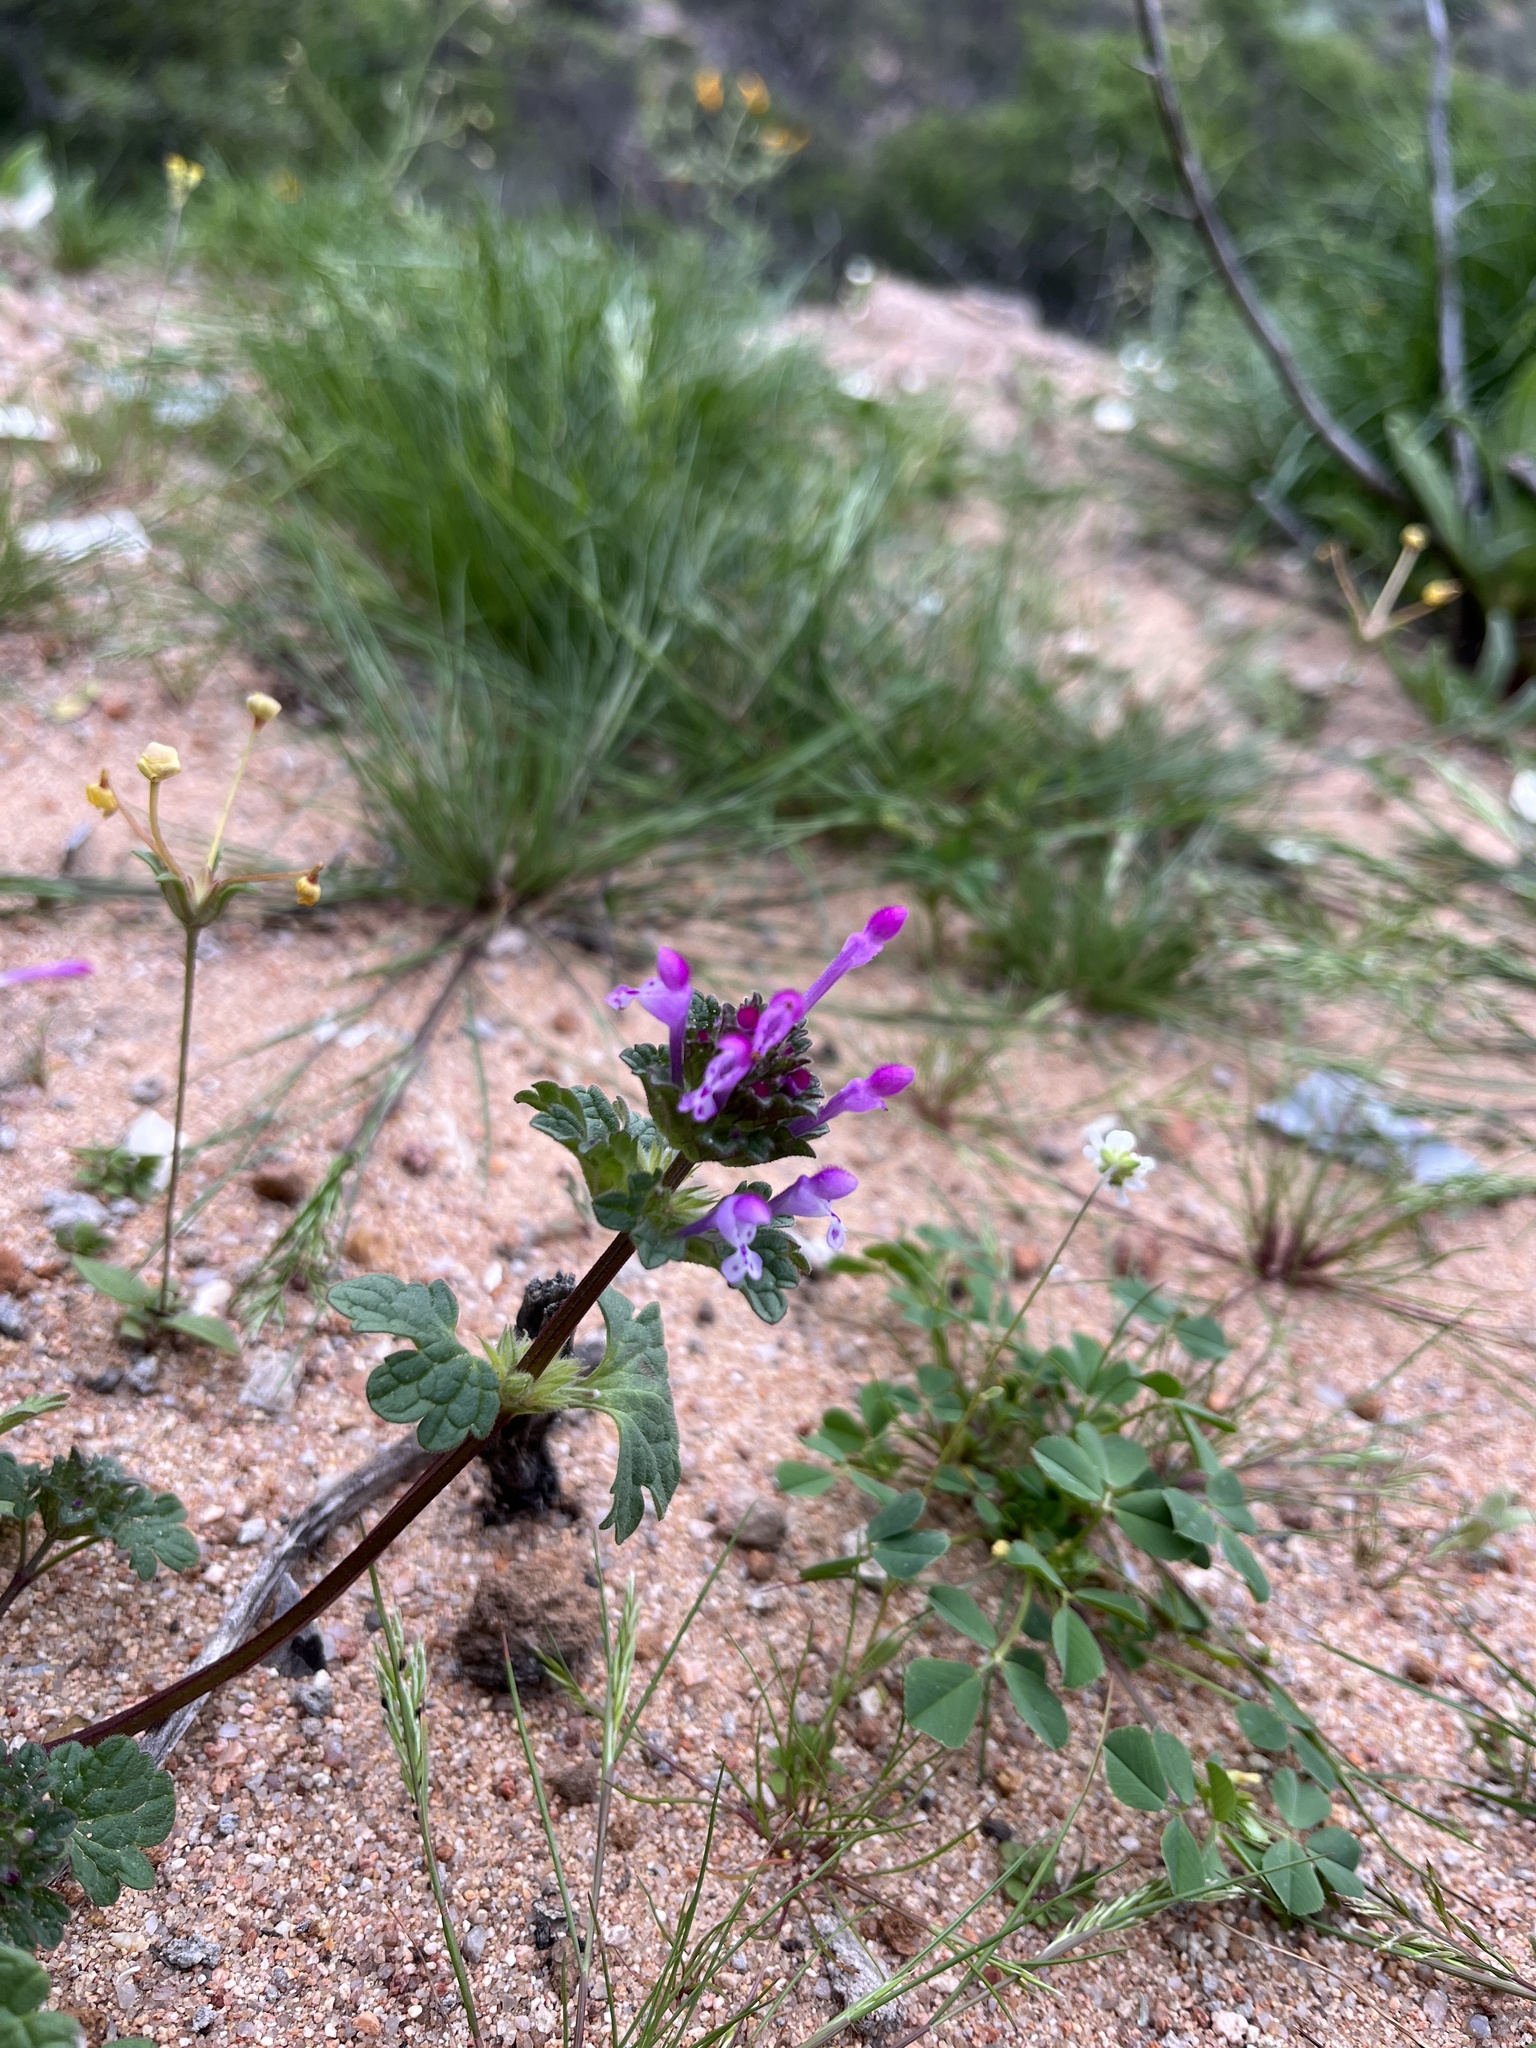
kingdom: Plantae
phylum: Tracheophyta
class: Magnoliopsida
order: Lamiales
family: Lamiaceae
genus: Lamium
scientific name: Lamium amplexicaule
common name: Henbit dead-nettle
